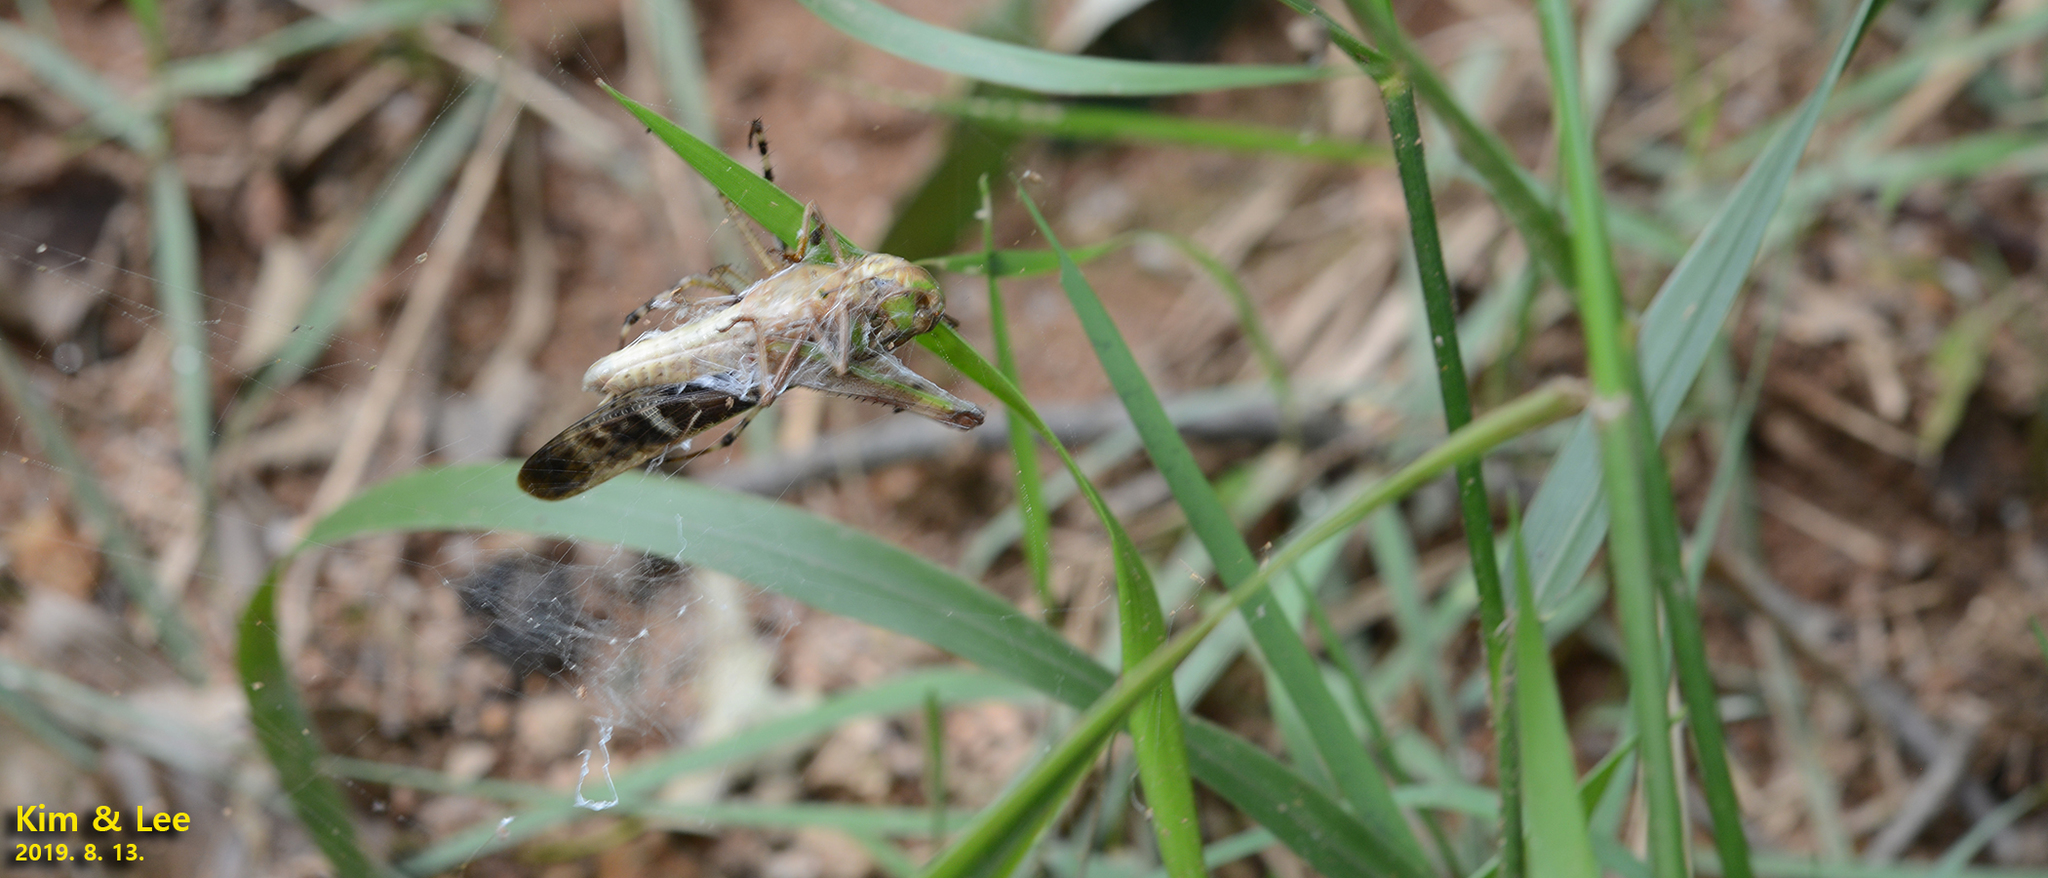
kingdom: Animalia
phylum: Arthropoda
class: Insecta
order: Orthoptera
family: Acrididae
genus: Gastrimargus
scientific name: Gastrimargus marmoratus
